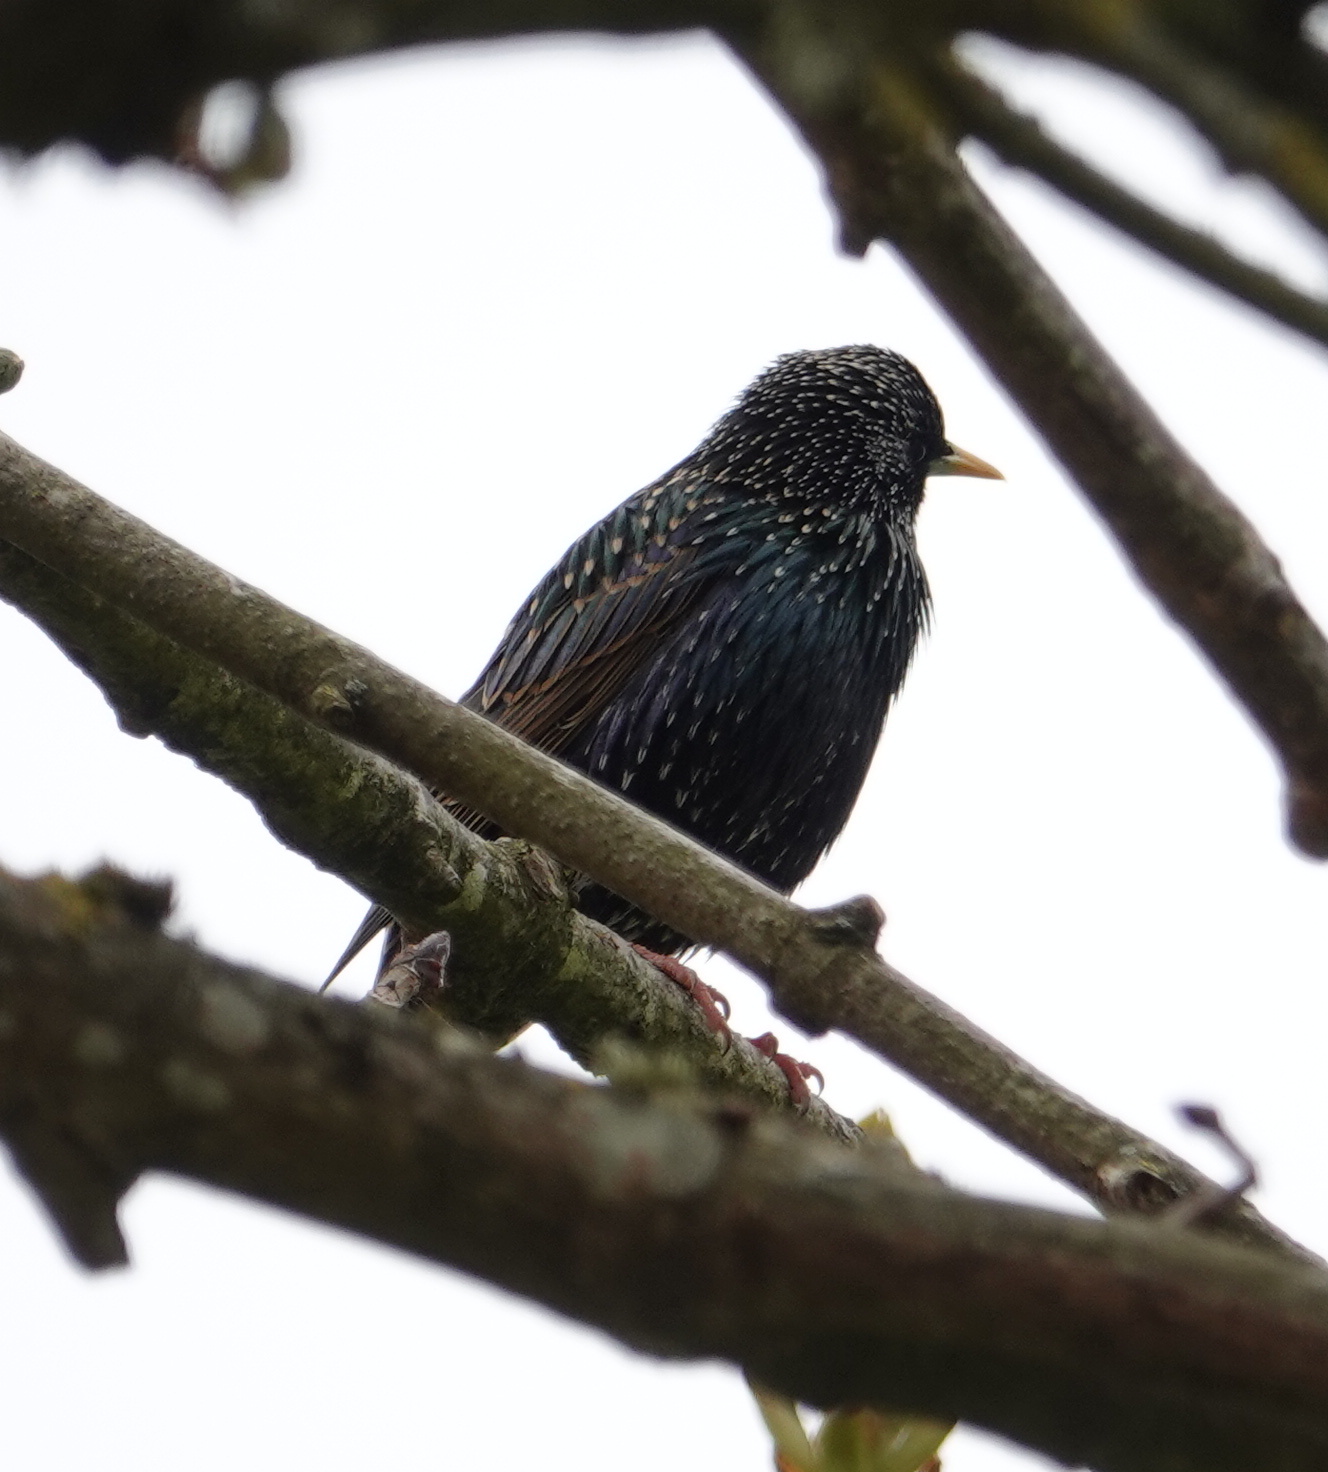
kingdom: Animalia
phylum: Chordata
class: Aves
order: Passeriformes
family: Sturnidae
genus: Sturnus
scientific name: Sturnus vulgaris
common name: Common starling
